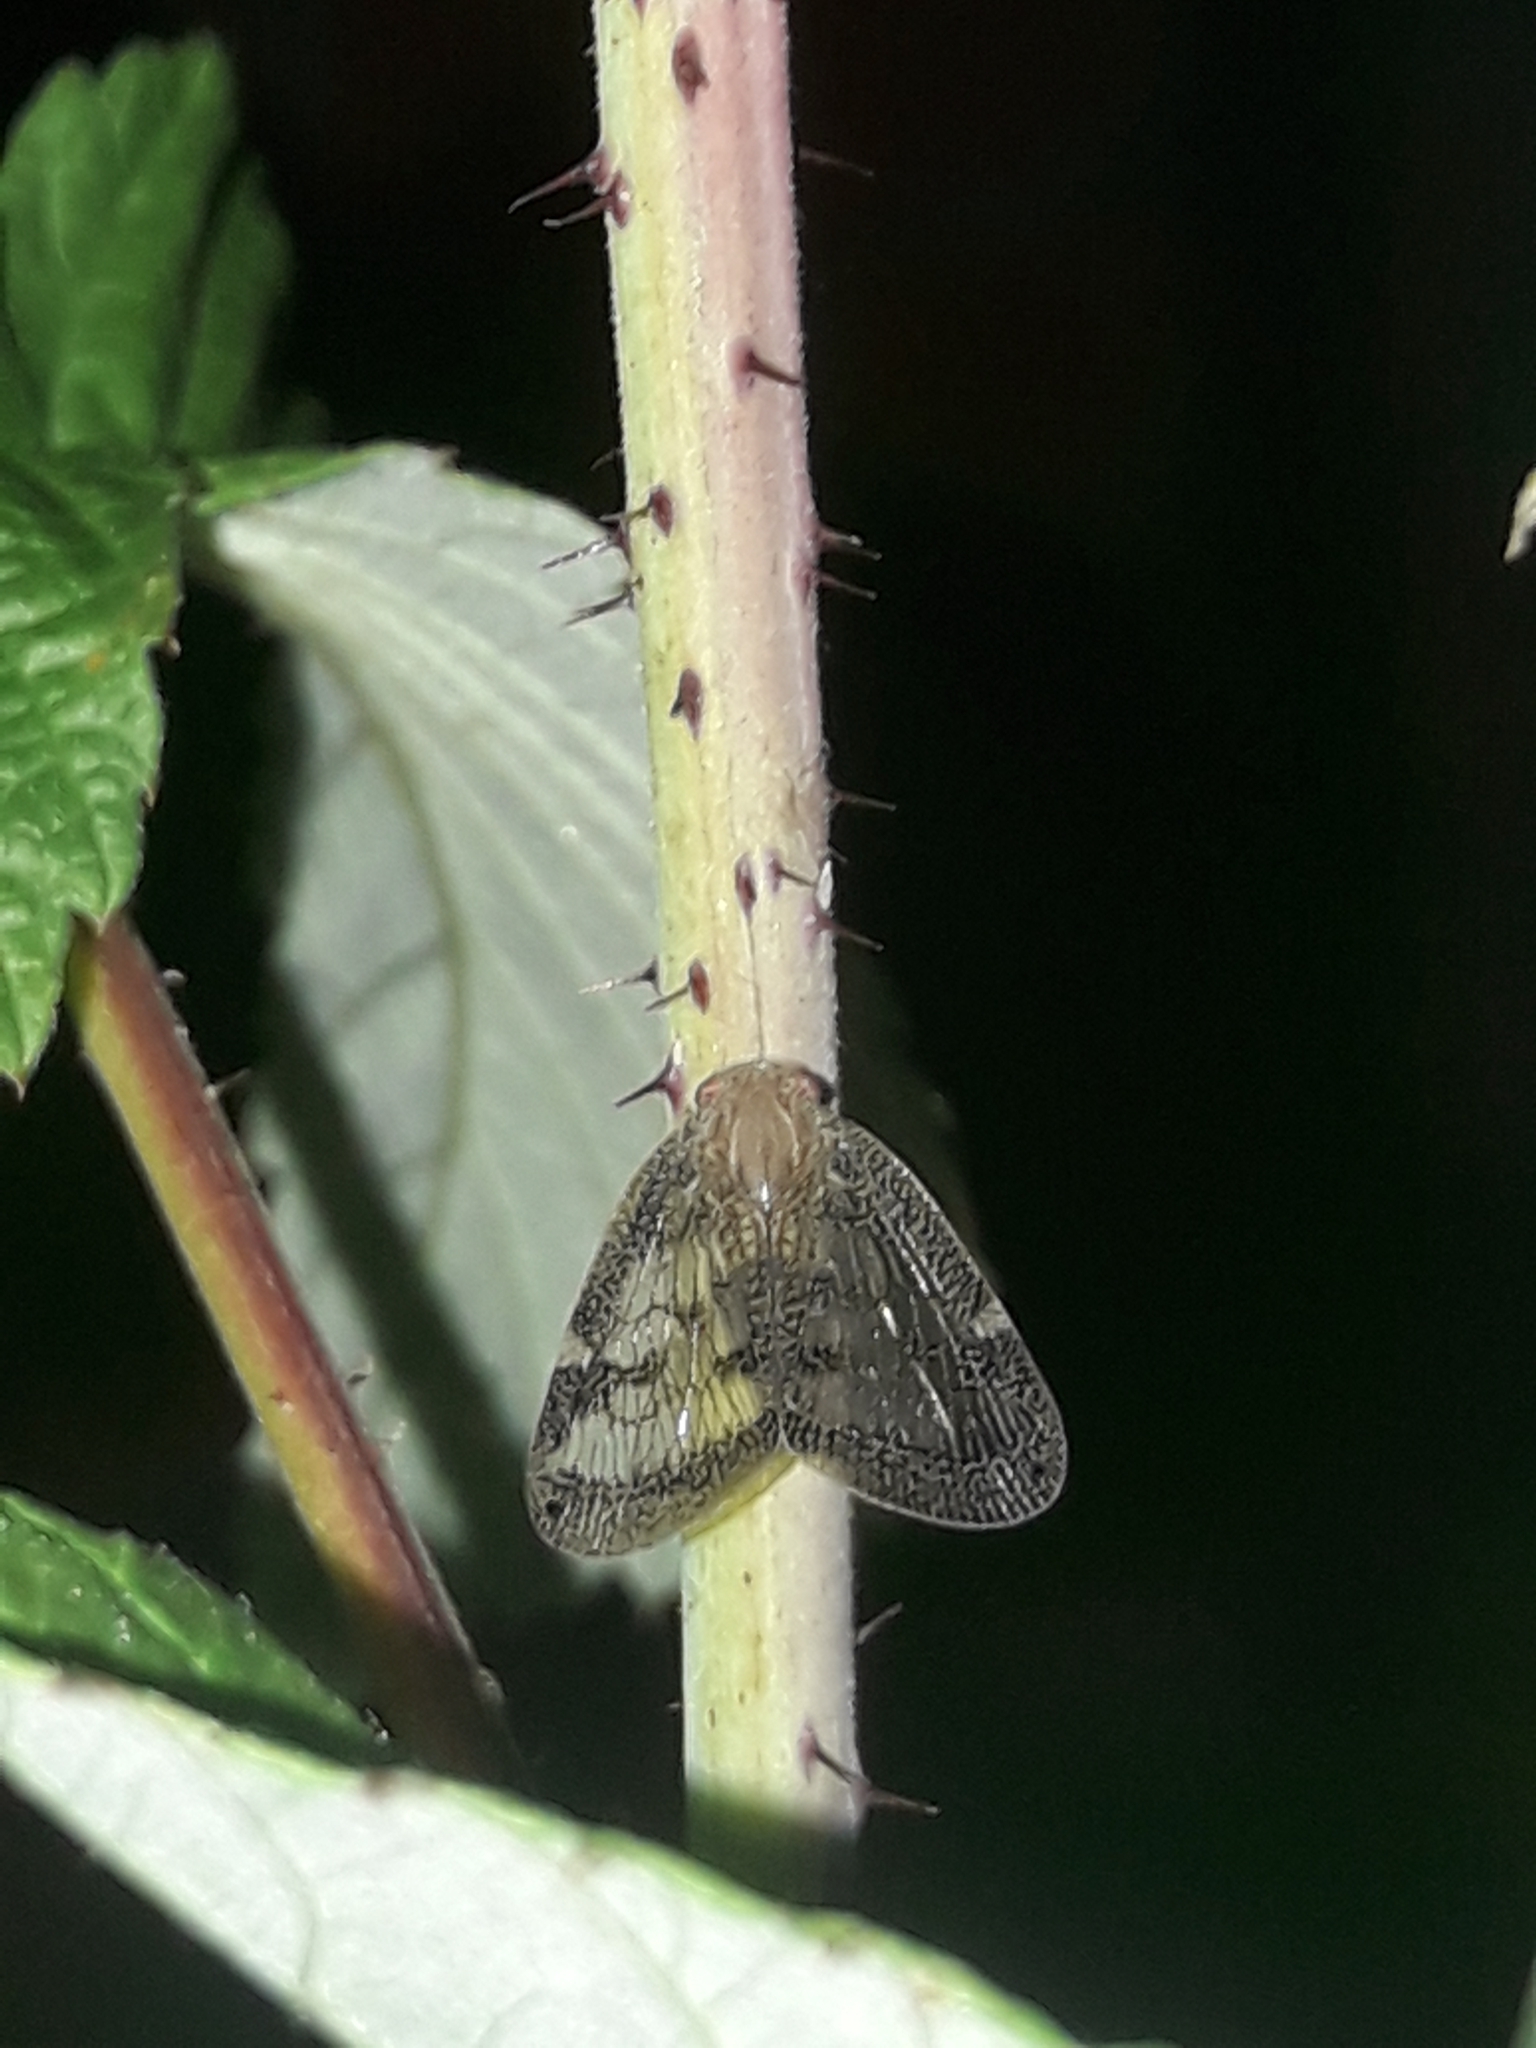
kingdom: Animalia
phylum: Arthropoda
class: Insecta
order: Hemiptera
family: Ricaniidae
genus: Scolypopa
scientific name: Scolypopa australis
